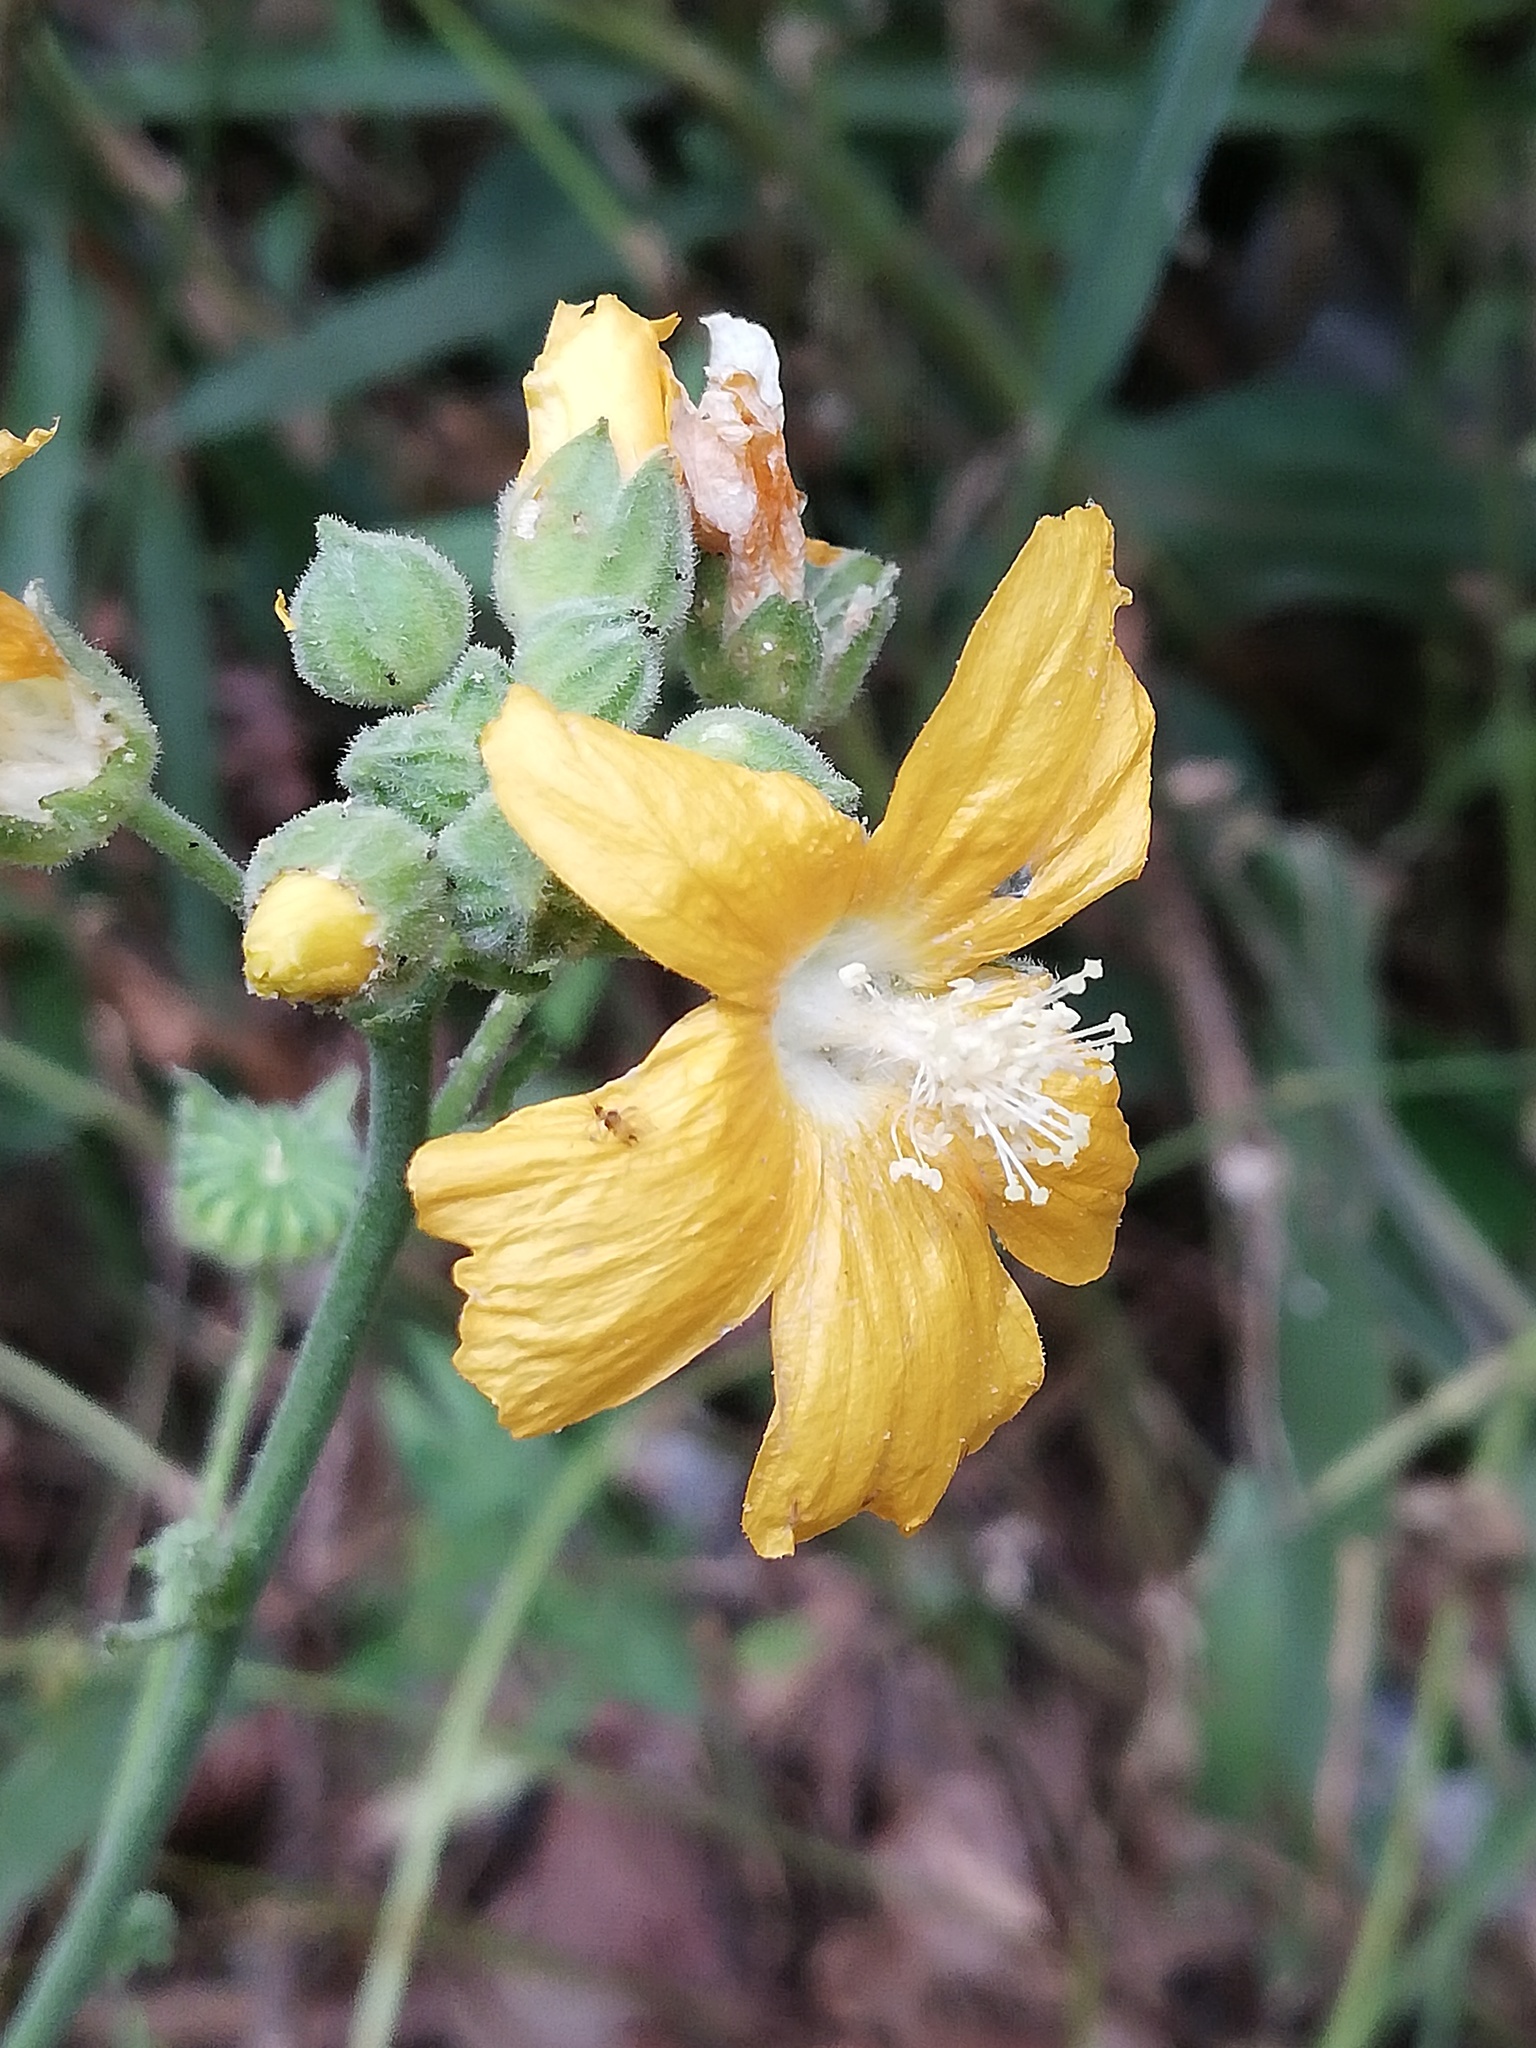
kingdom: Plantae
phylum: Tracheophyta
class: Magnoliopsida
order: Malvales
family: Malvaceae
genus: Anoda
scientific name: Anoda leonensis
